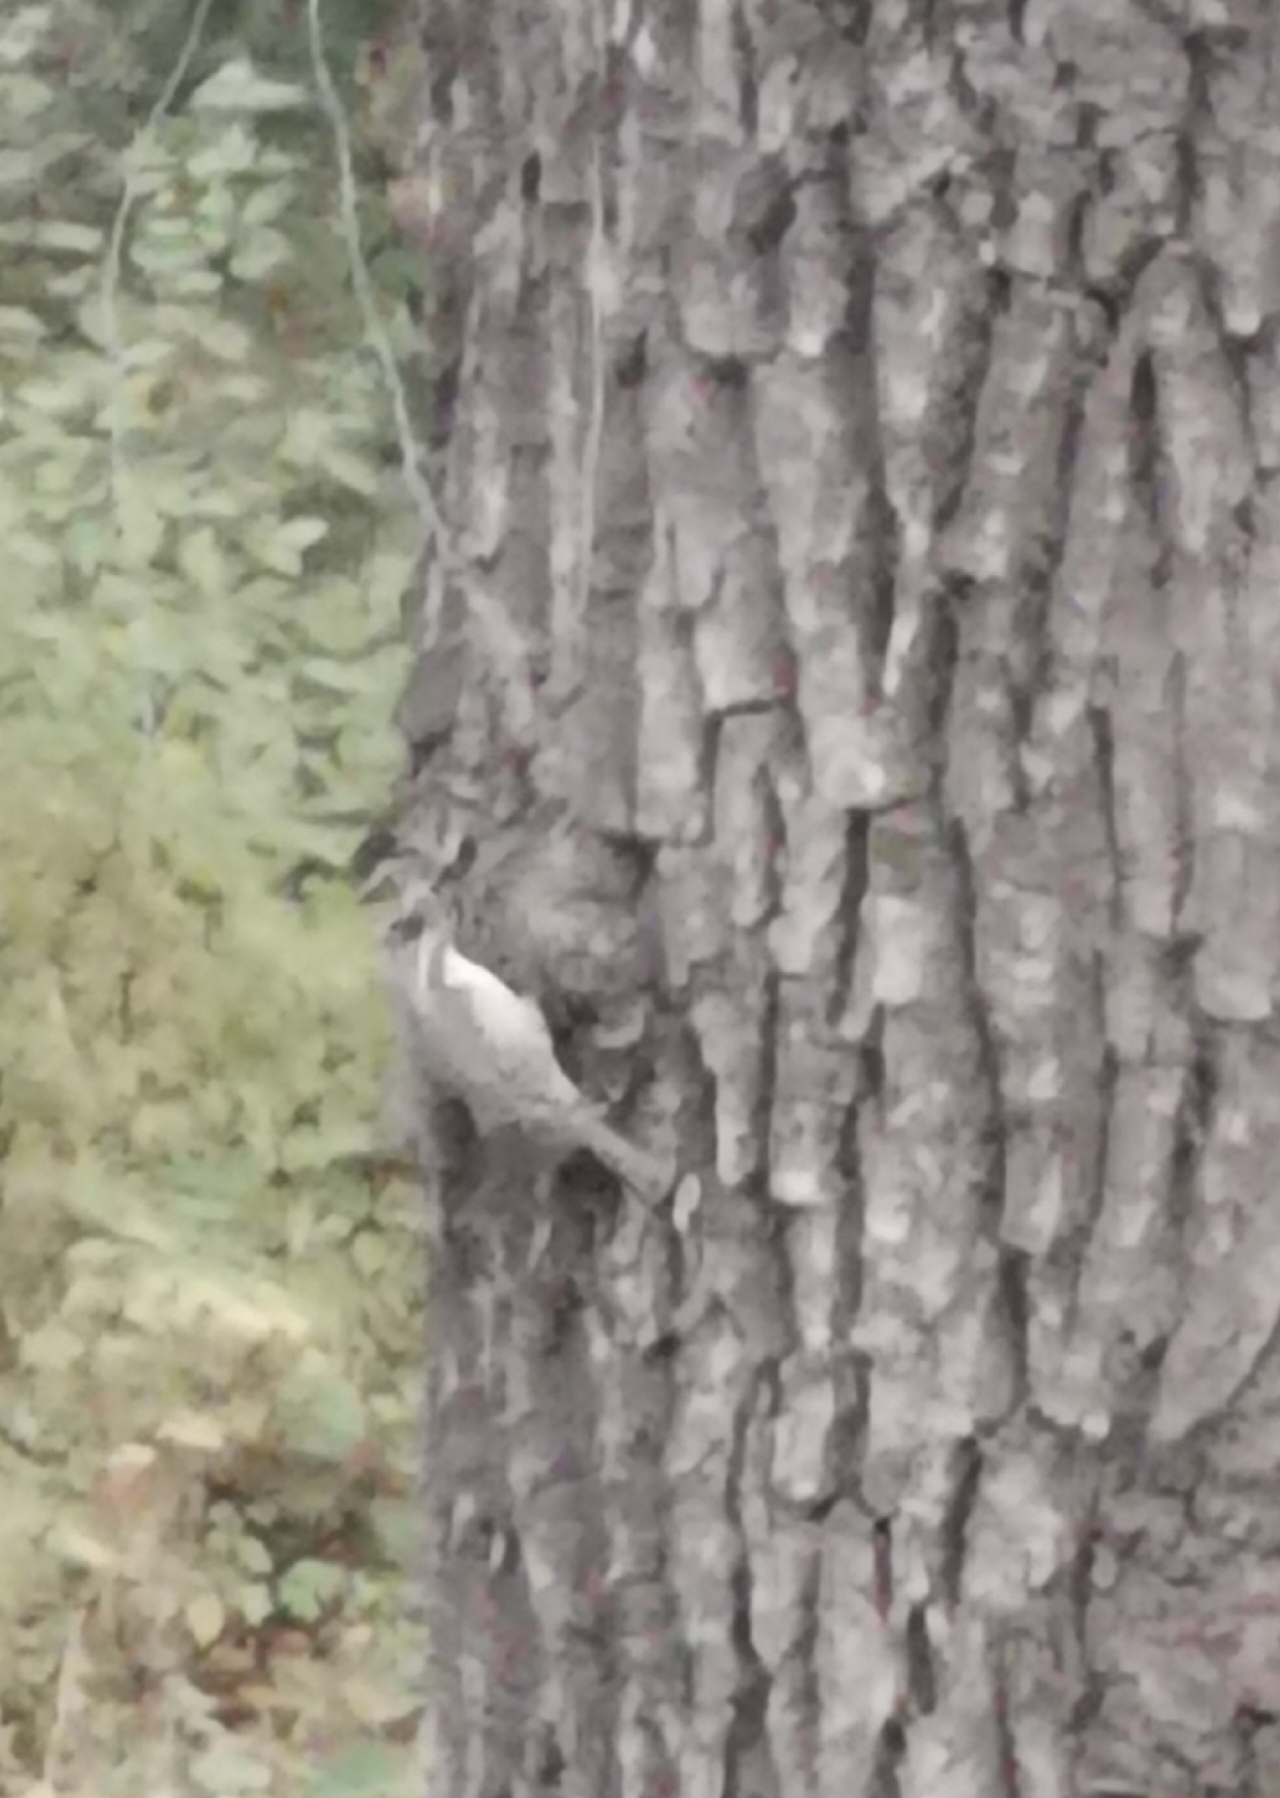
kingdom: Animalia
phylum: Chordata
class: Aves
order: Passeriformes
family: Certhiidae
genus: Certhia
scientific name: Certhia familiaris
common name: Eurasian treecreeper
